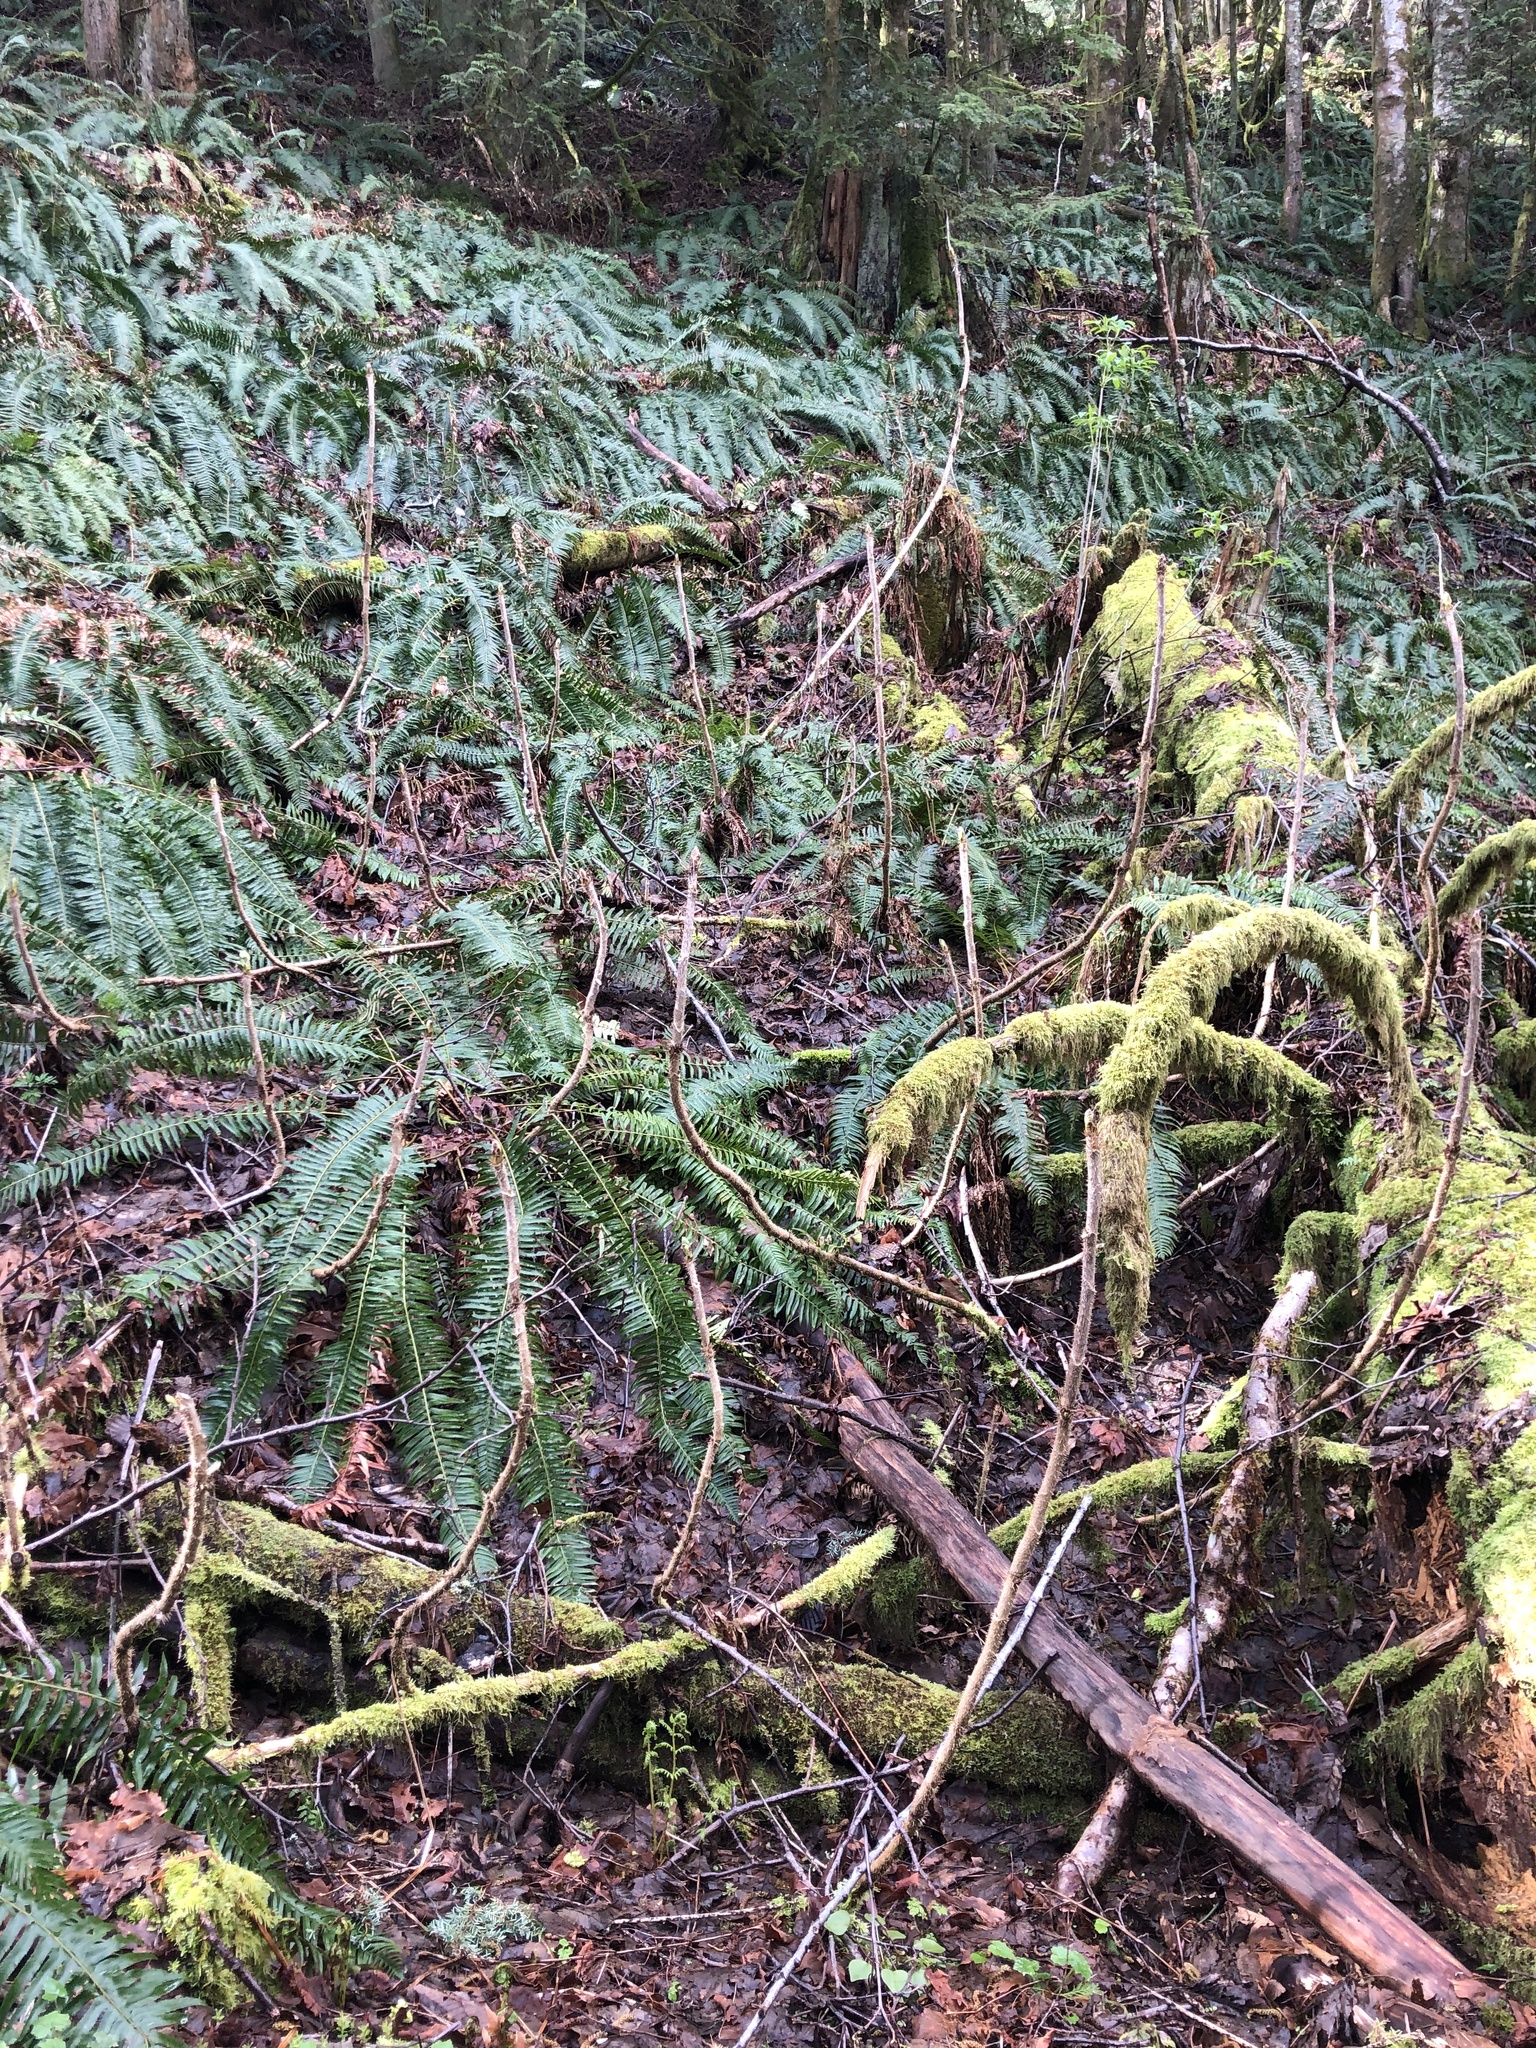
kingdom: Plantae
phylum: Tracheophyta
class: Polypodiopsida
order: Polypodiales
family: Dryopteridaceae
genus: Polystichum
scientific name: Polystichum munitum
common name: Western sword-fern
